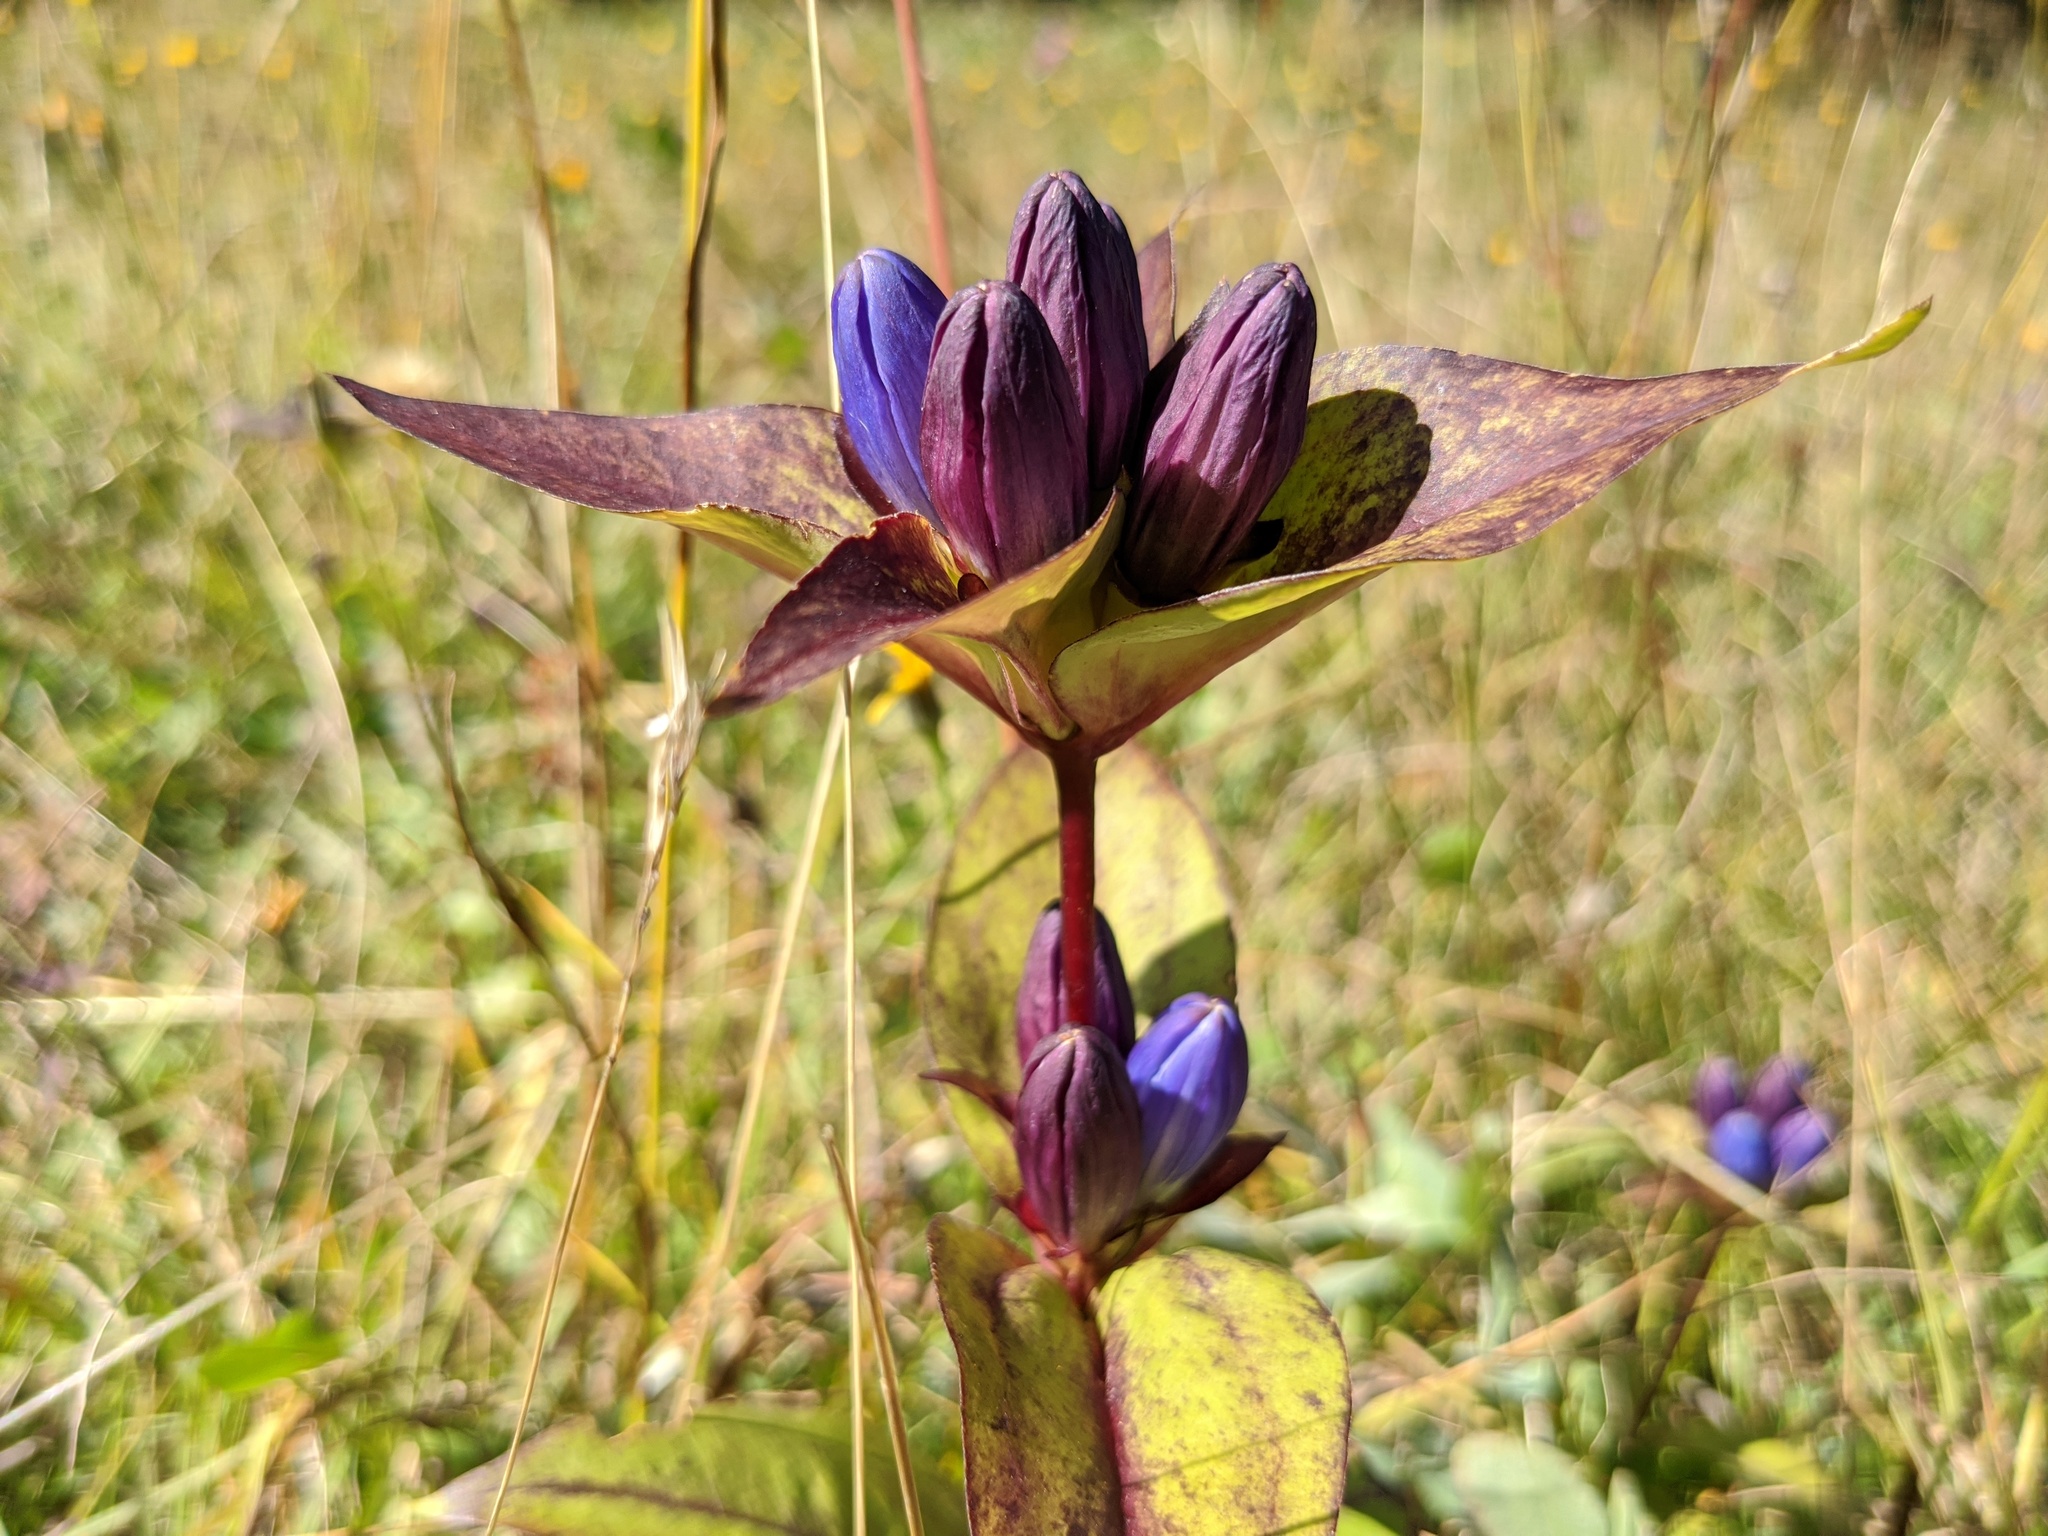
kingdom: Plantae
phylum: Tracheophyta
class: Magnoliopsida
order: Gentianales
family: Gentianaceae
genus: Gentiana
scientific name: Gentiana clausa
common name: Blind gentian
